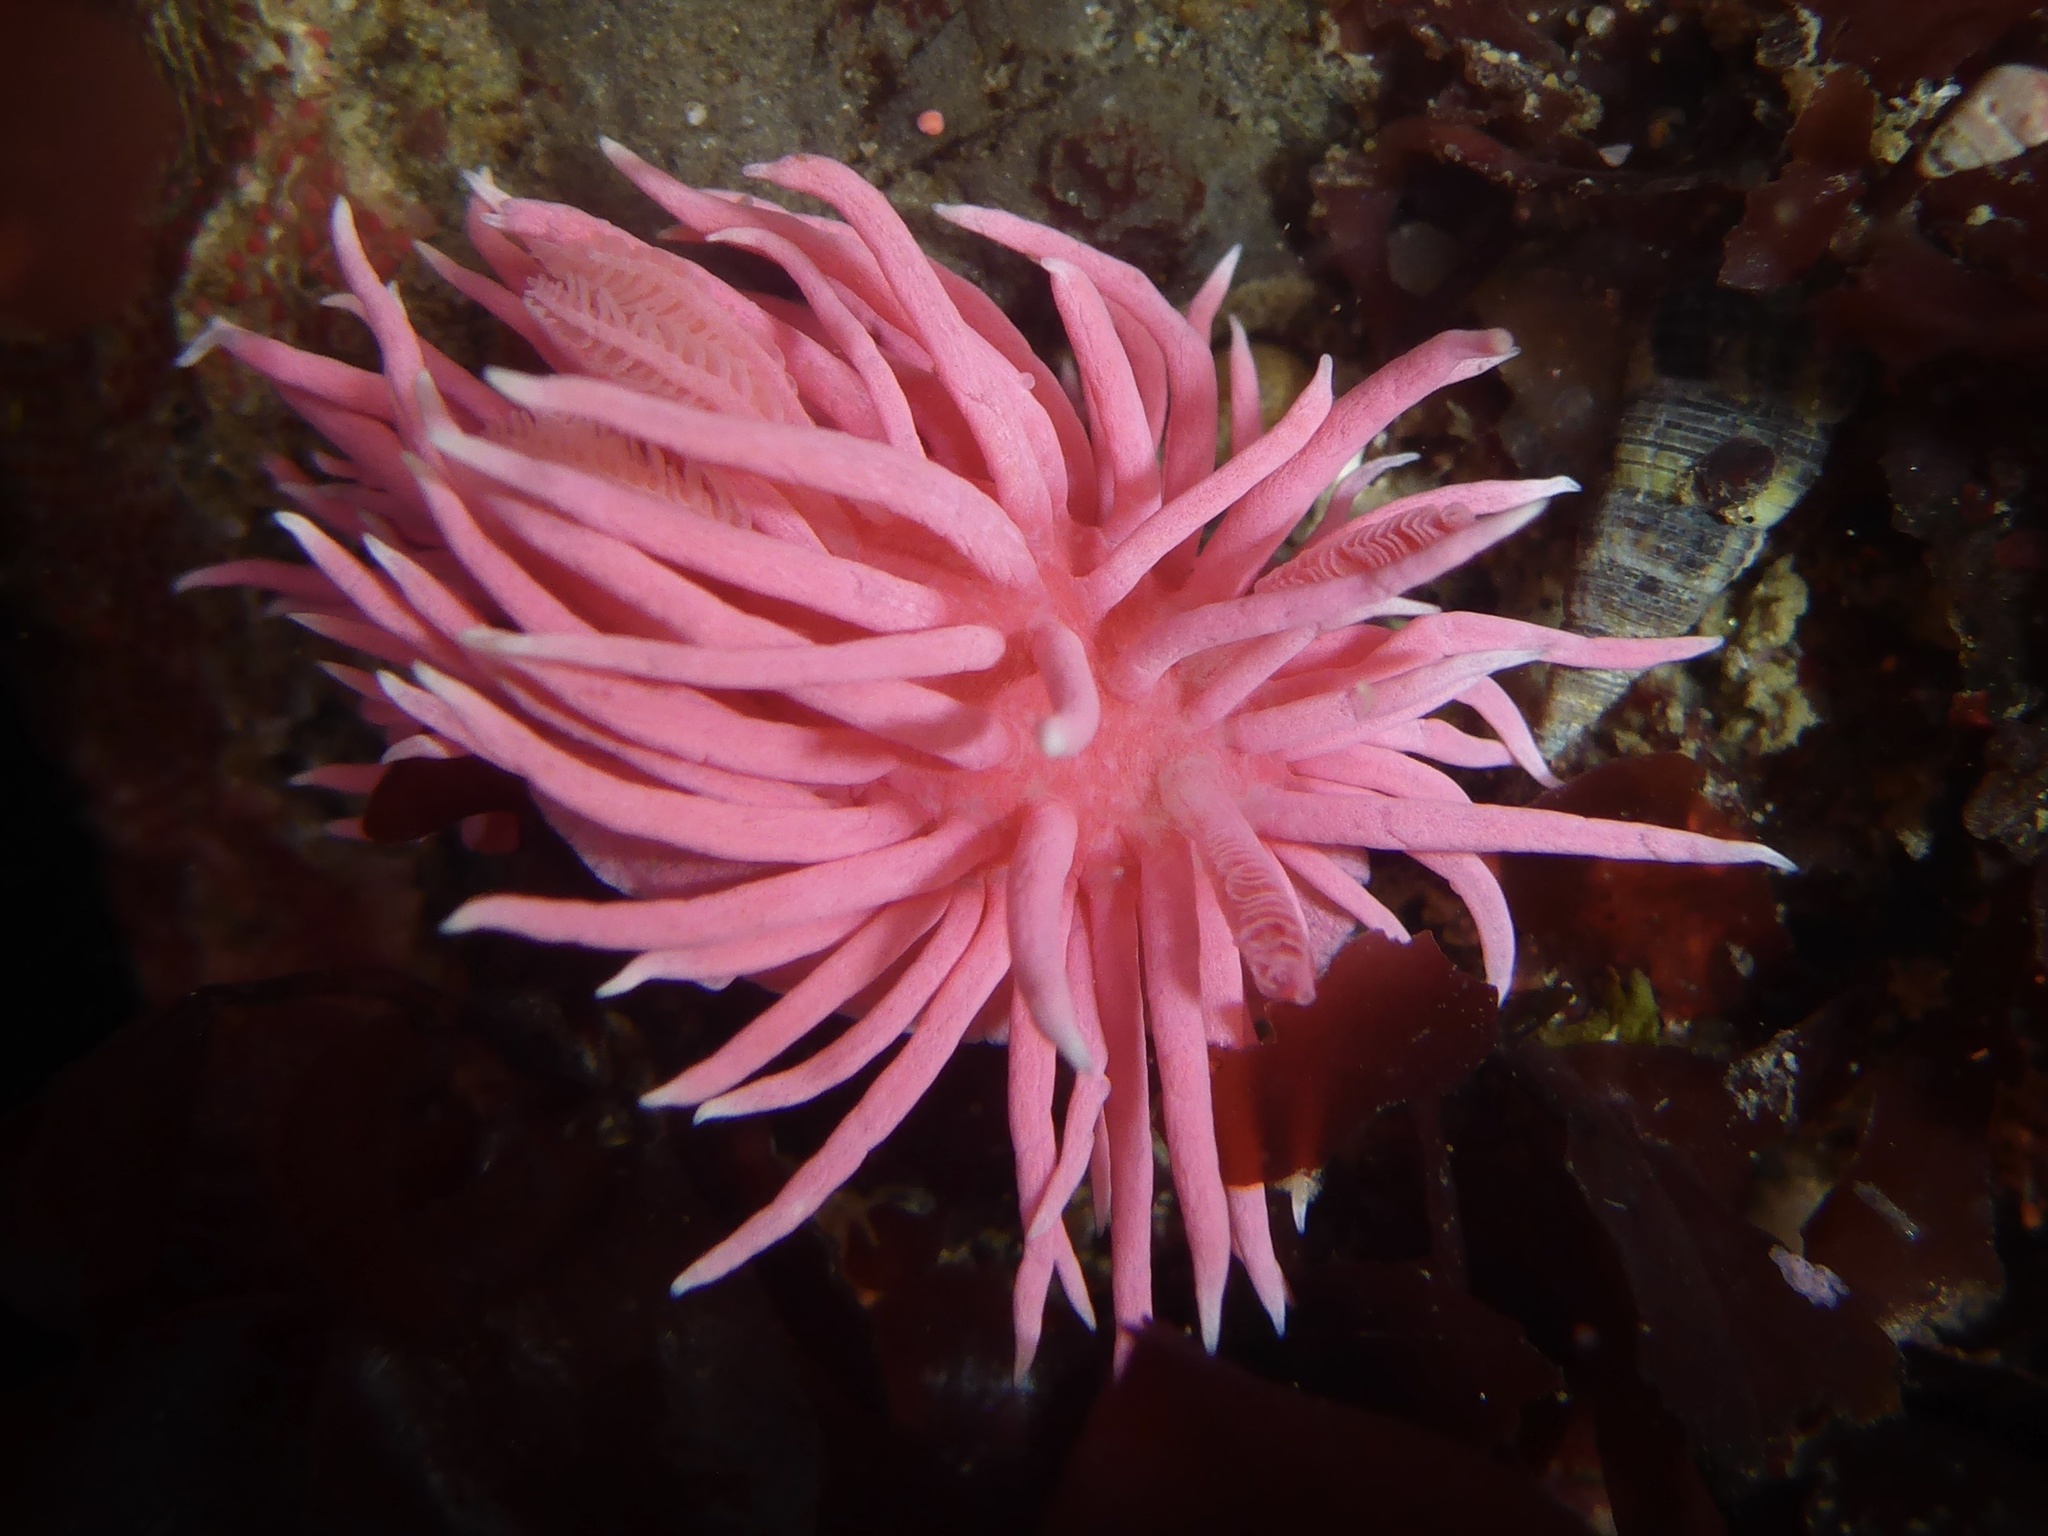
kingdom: Animalia
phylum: Mollusca
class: Gastropoda
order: Nudibranchia
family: Goniodorididae
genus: Okenia
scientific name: Okenia
